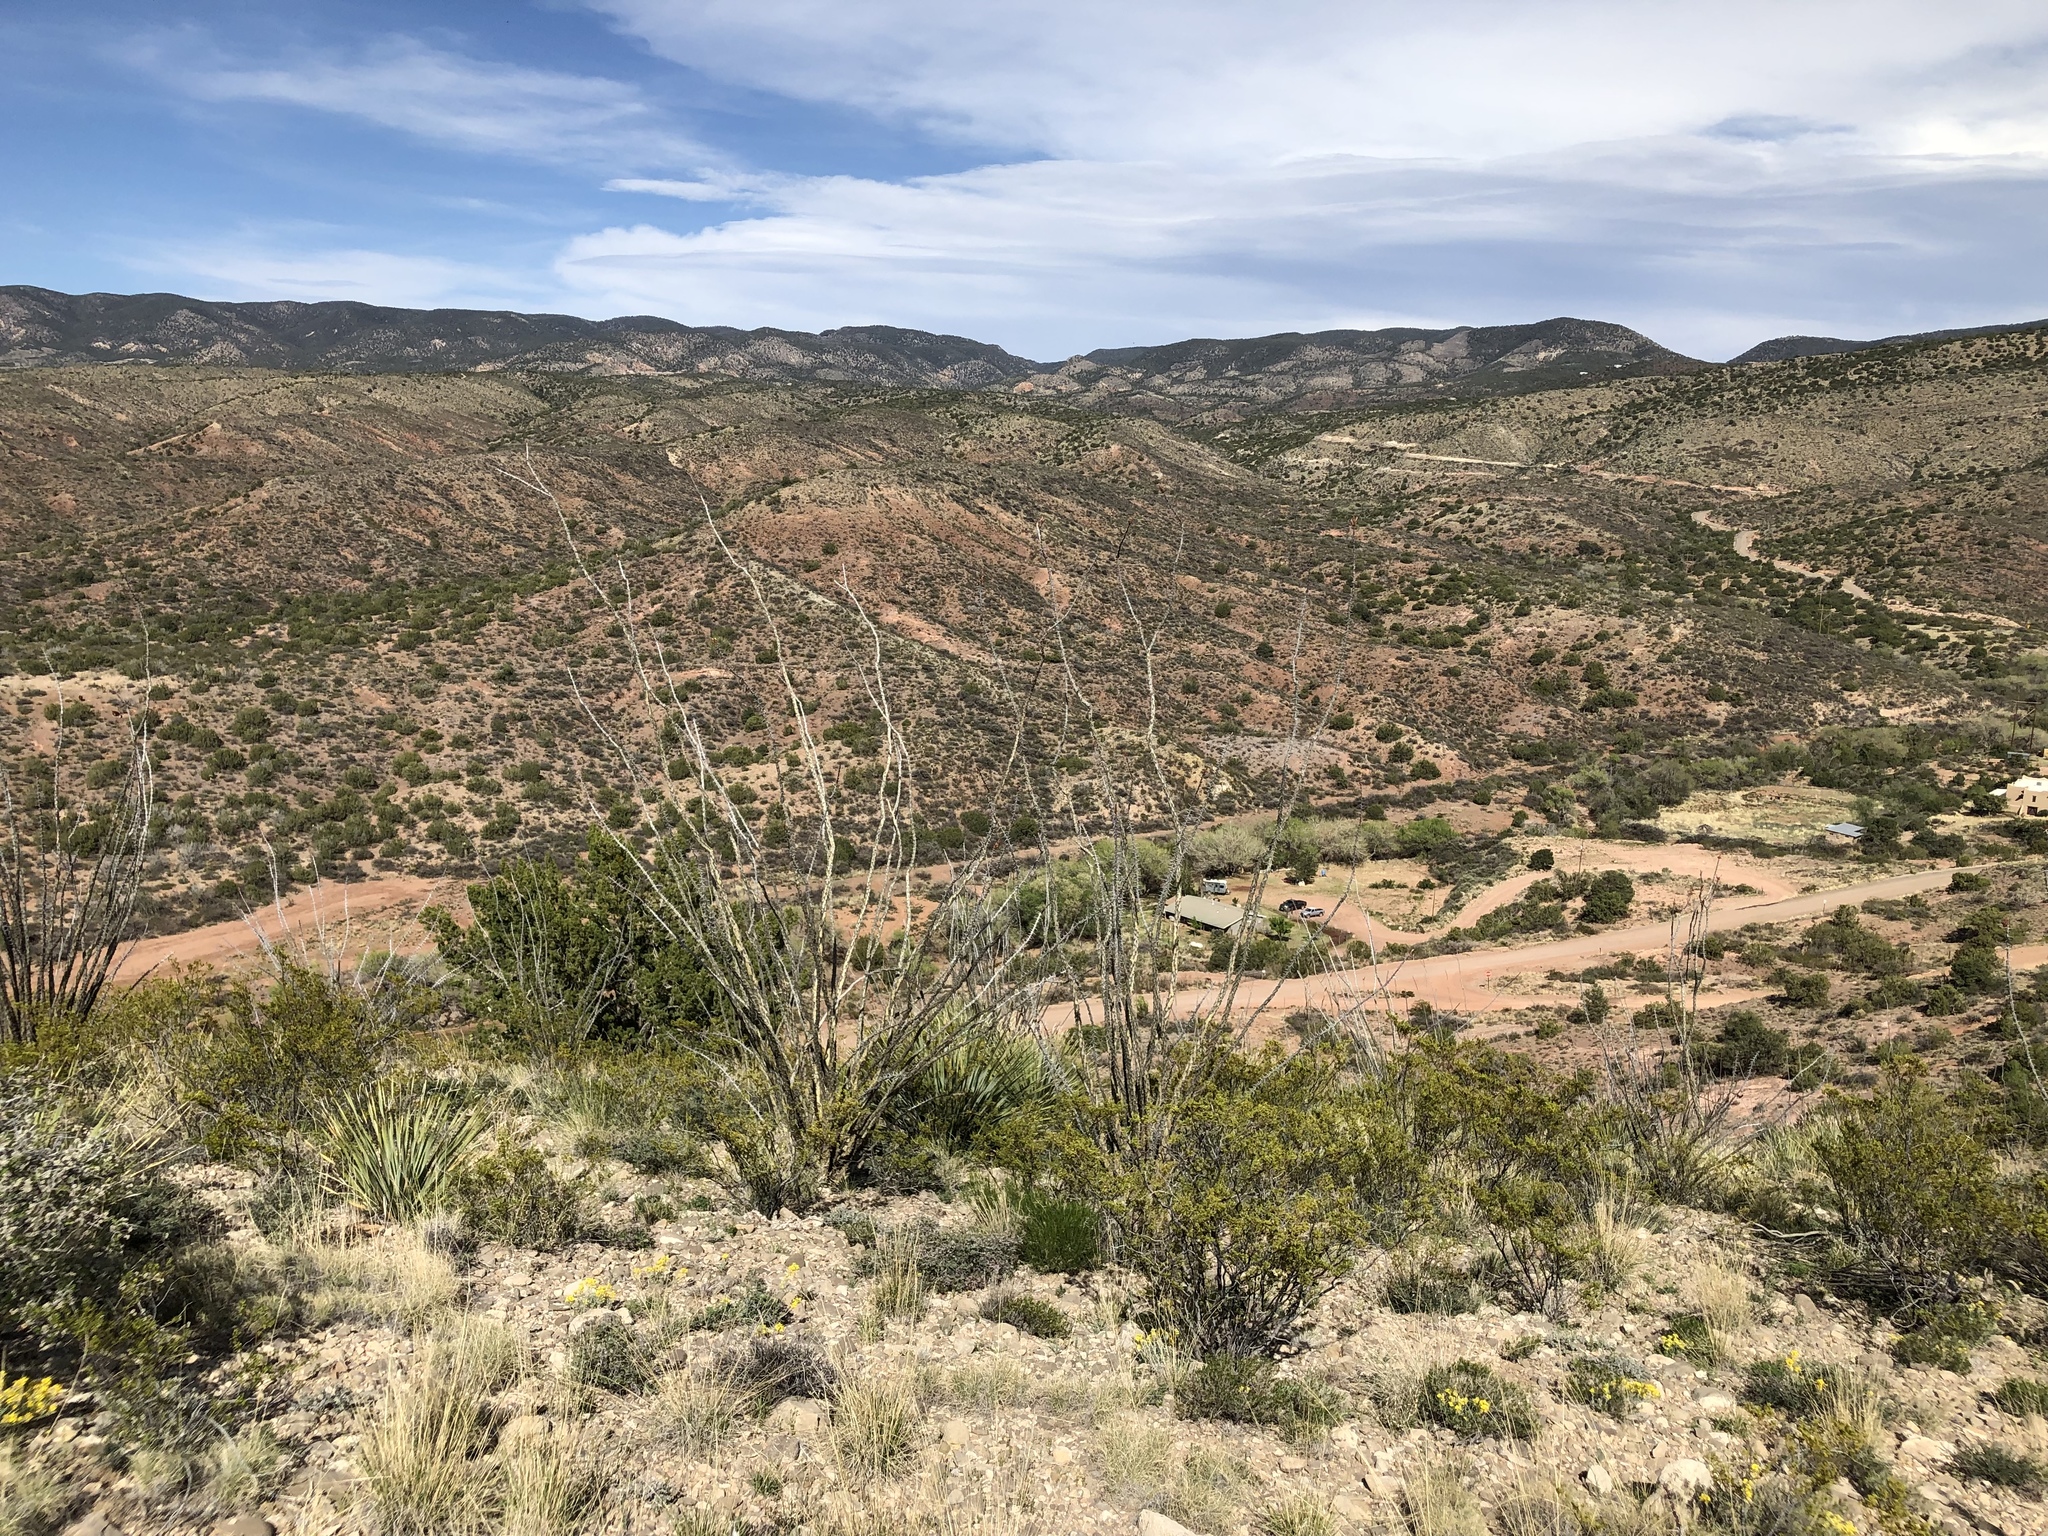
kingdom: Plantae
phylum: Tracheophyta
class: Magnoliopsida
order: Ericales
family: Fouquieriaceae
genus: Fouquieria
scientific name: Fouquieria splendens
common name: Vine-cactus
